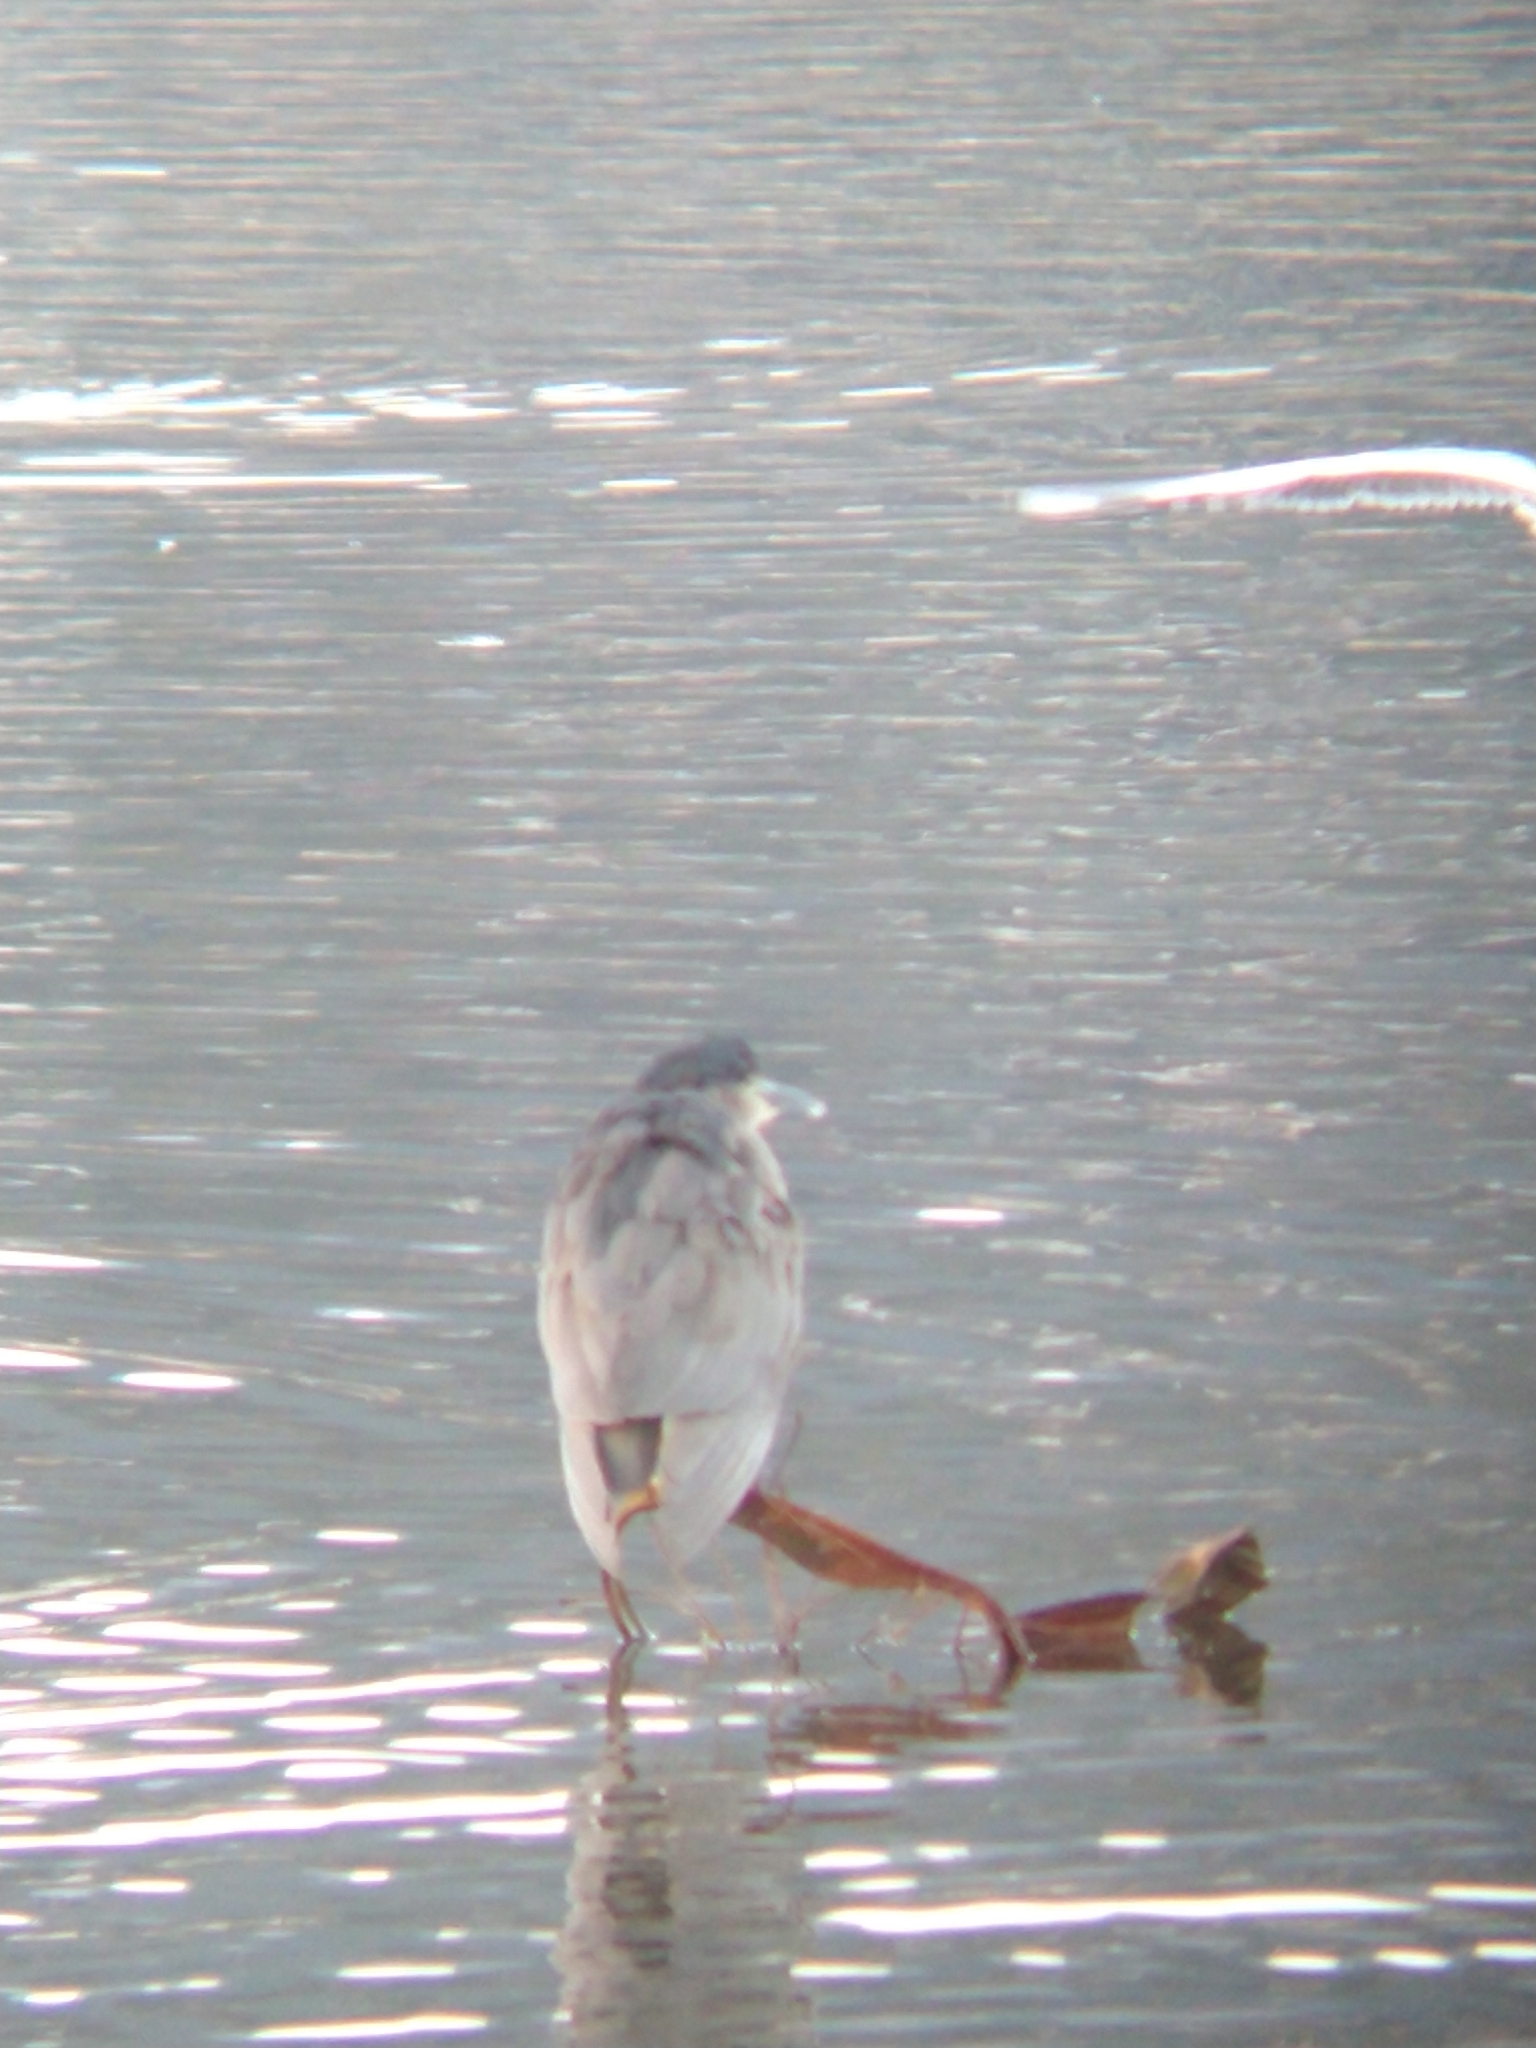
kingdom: Animalia
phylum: Chordata
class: Aves
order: Pelecaniformes
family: Ardeidae
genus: Nycticorax
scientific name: Nycticorax nycticorax
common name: Black-crowned night heron
